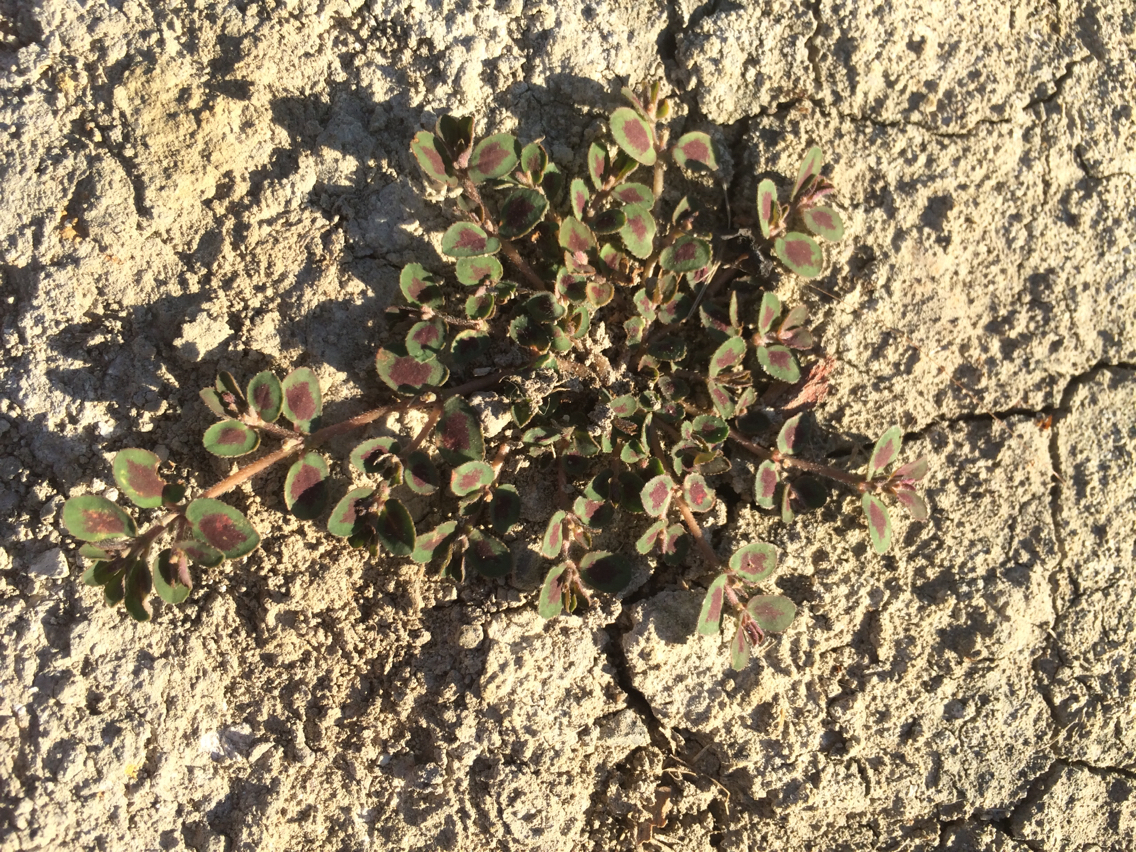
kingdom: Plantae
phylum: Tracheophyta
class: Magnoliopsida
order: Malpighiales
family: Euphorbiaceae
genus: Euphorbia
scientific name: Euphorbia maculata
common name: Spotted spurge
